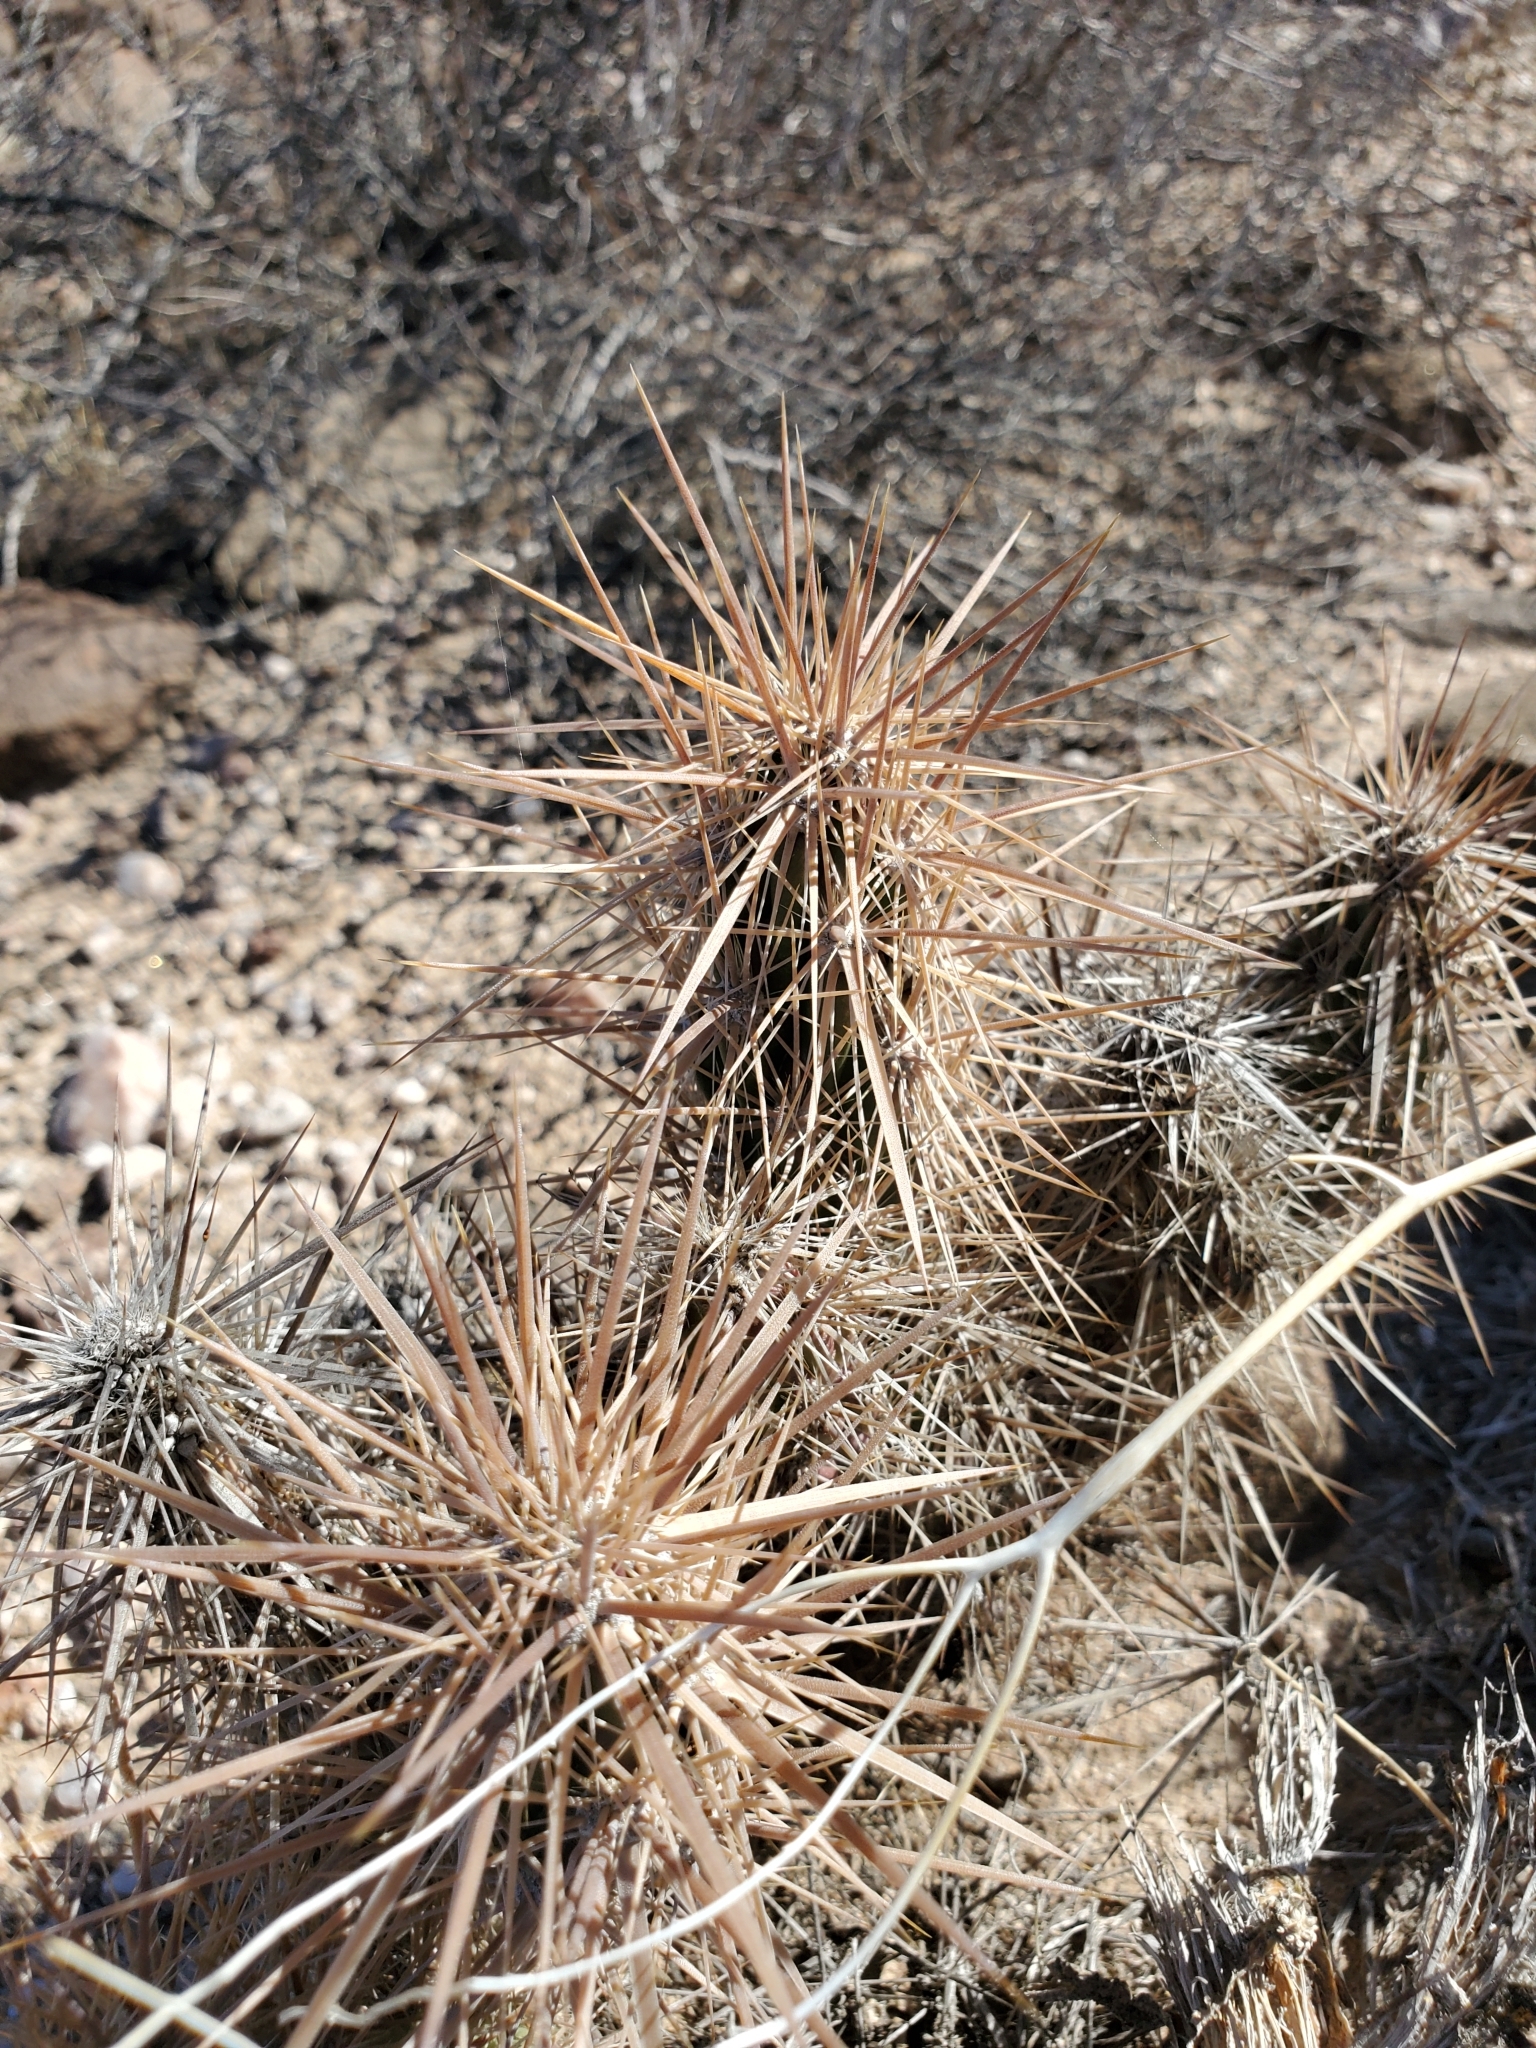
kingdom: Plantae
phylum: Tracheophyta
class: Magnoliopsida
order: Caryophyllales
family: Cactaceae
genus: Grusonia
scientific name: Grusonia kunzei
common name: Wright's club cholla
